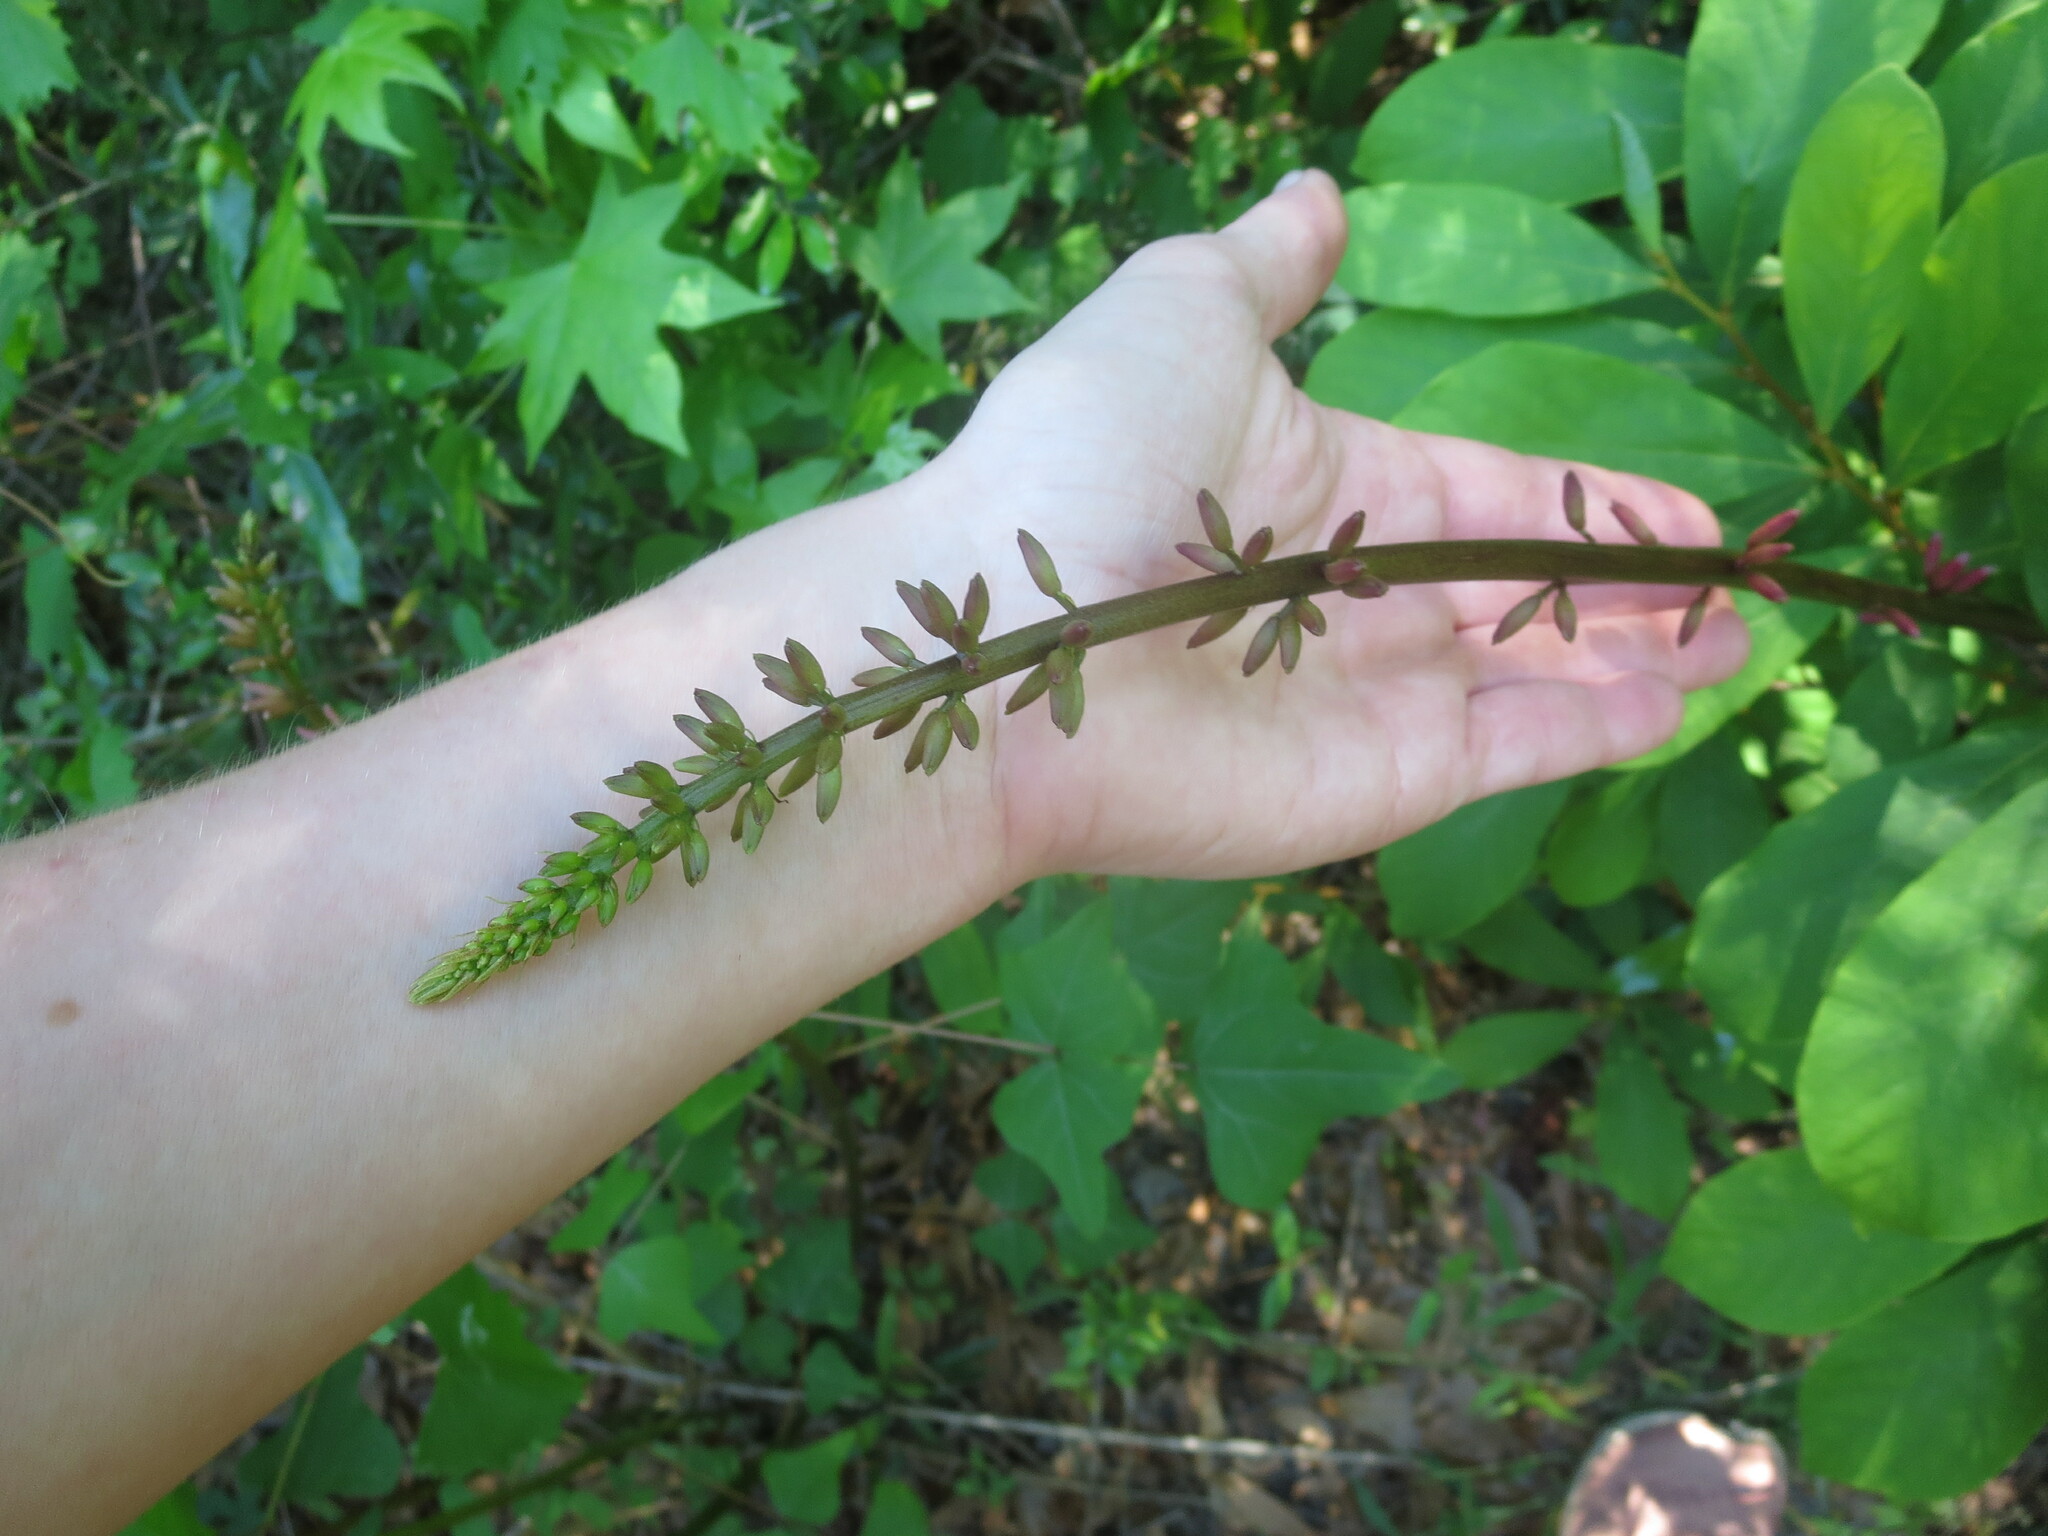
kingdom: Plantae
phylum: Tracheophyta
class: Magnoliopsida
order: Fabales
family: Fabaceae
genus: Erythrina
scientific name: Erythrina herbacea
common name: Coral-bean
